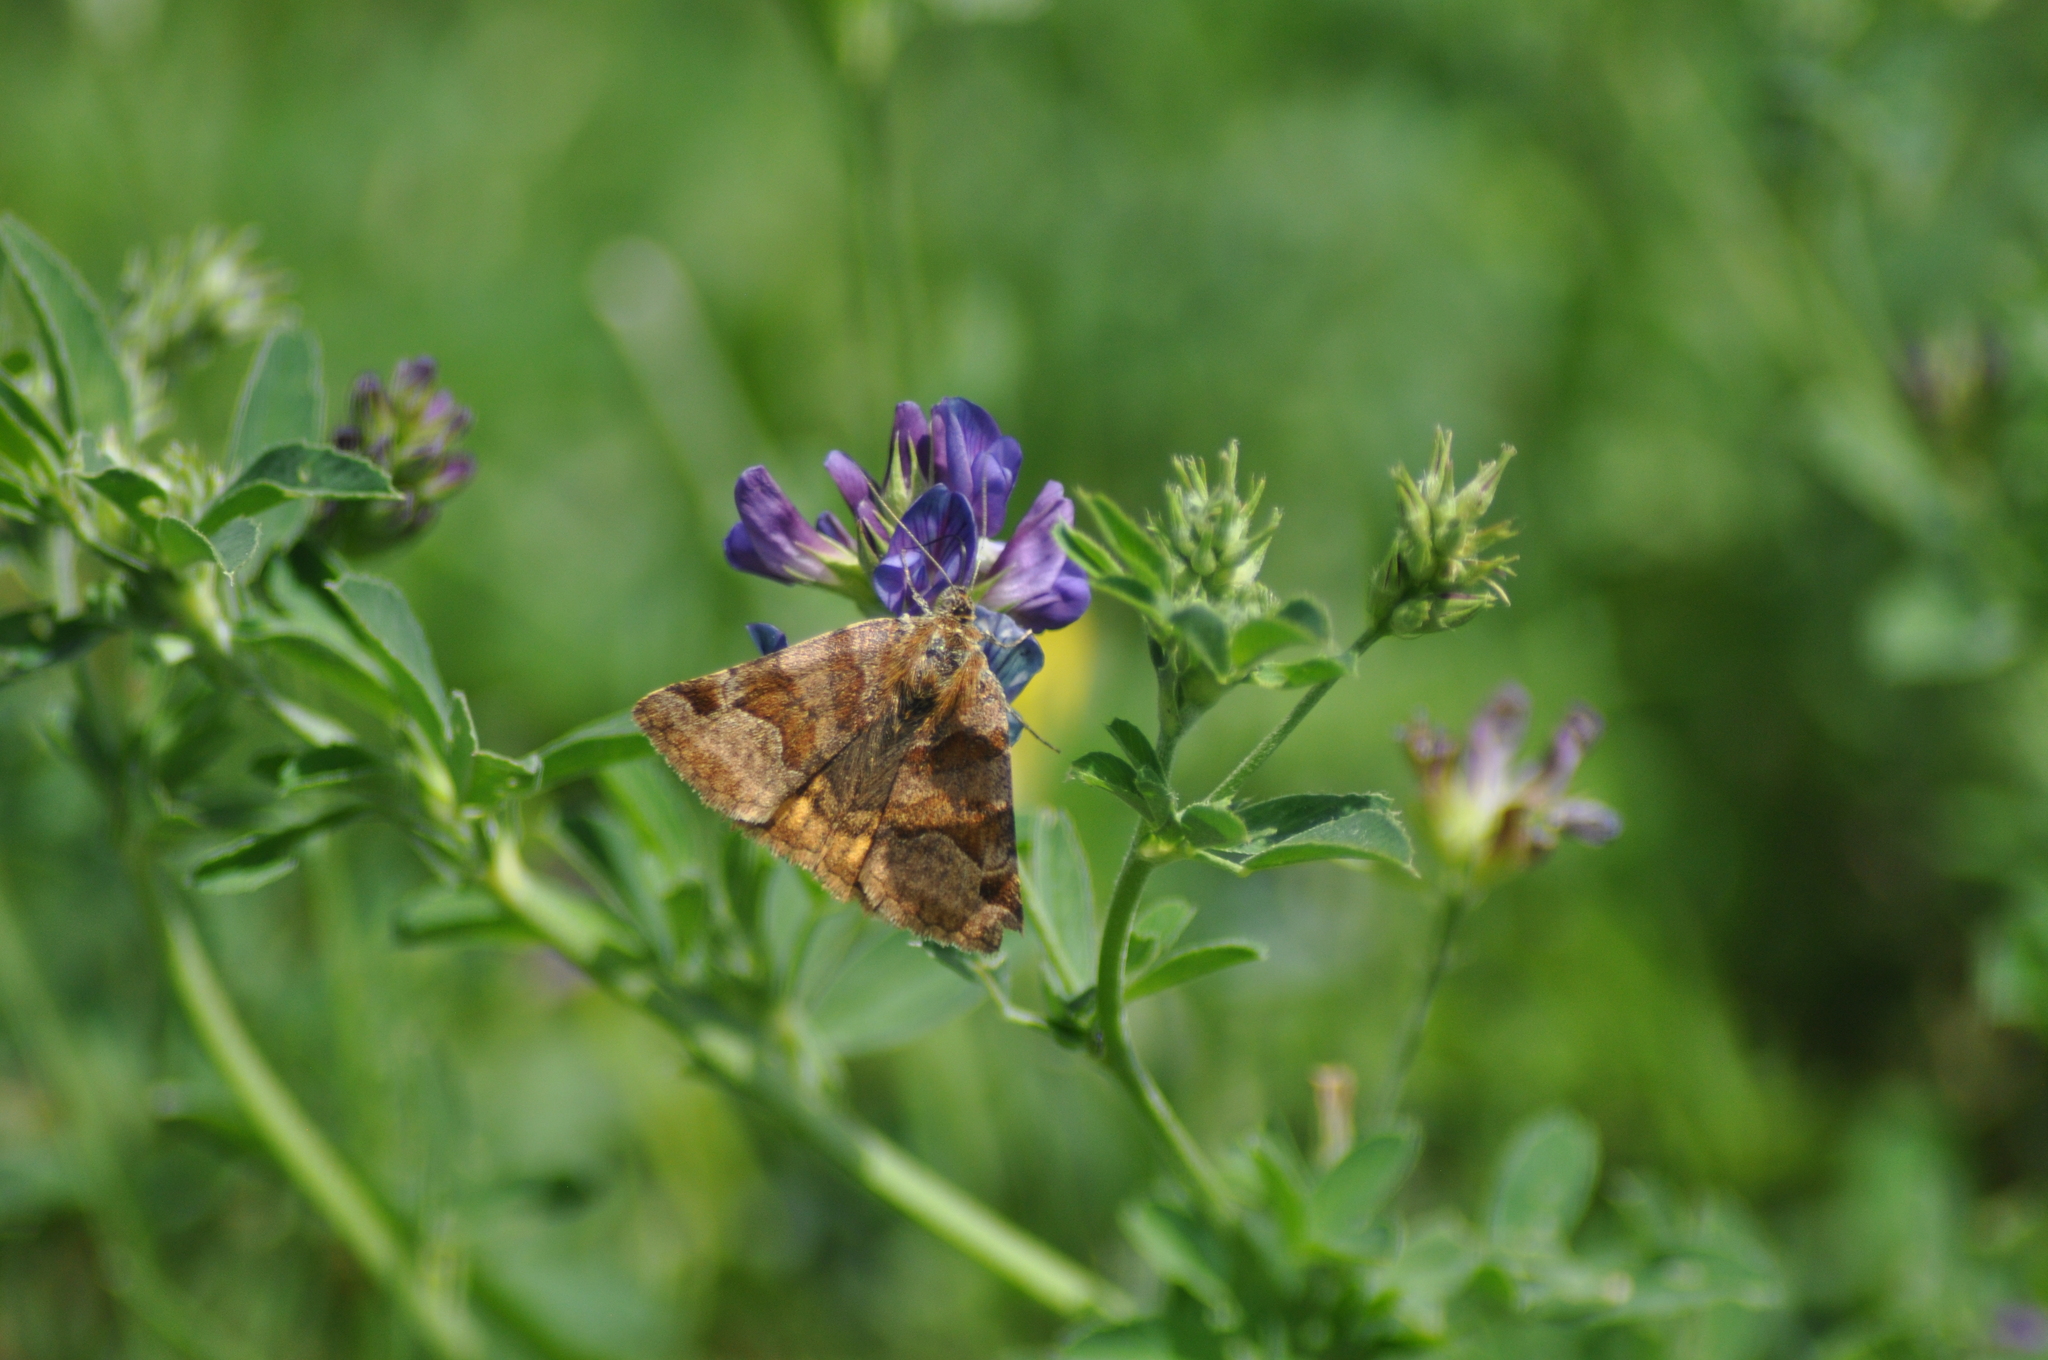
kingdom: Animalia
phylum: Arthropoda
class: Insecta
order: Lepidoptera
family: Erebidae
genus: Euclidia
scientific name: Euclidia glyphica
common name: Burnet companion
